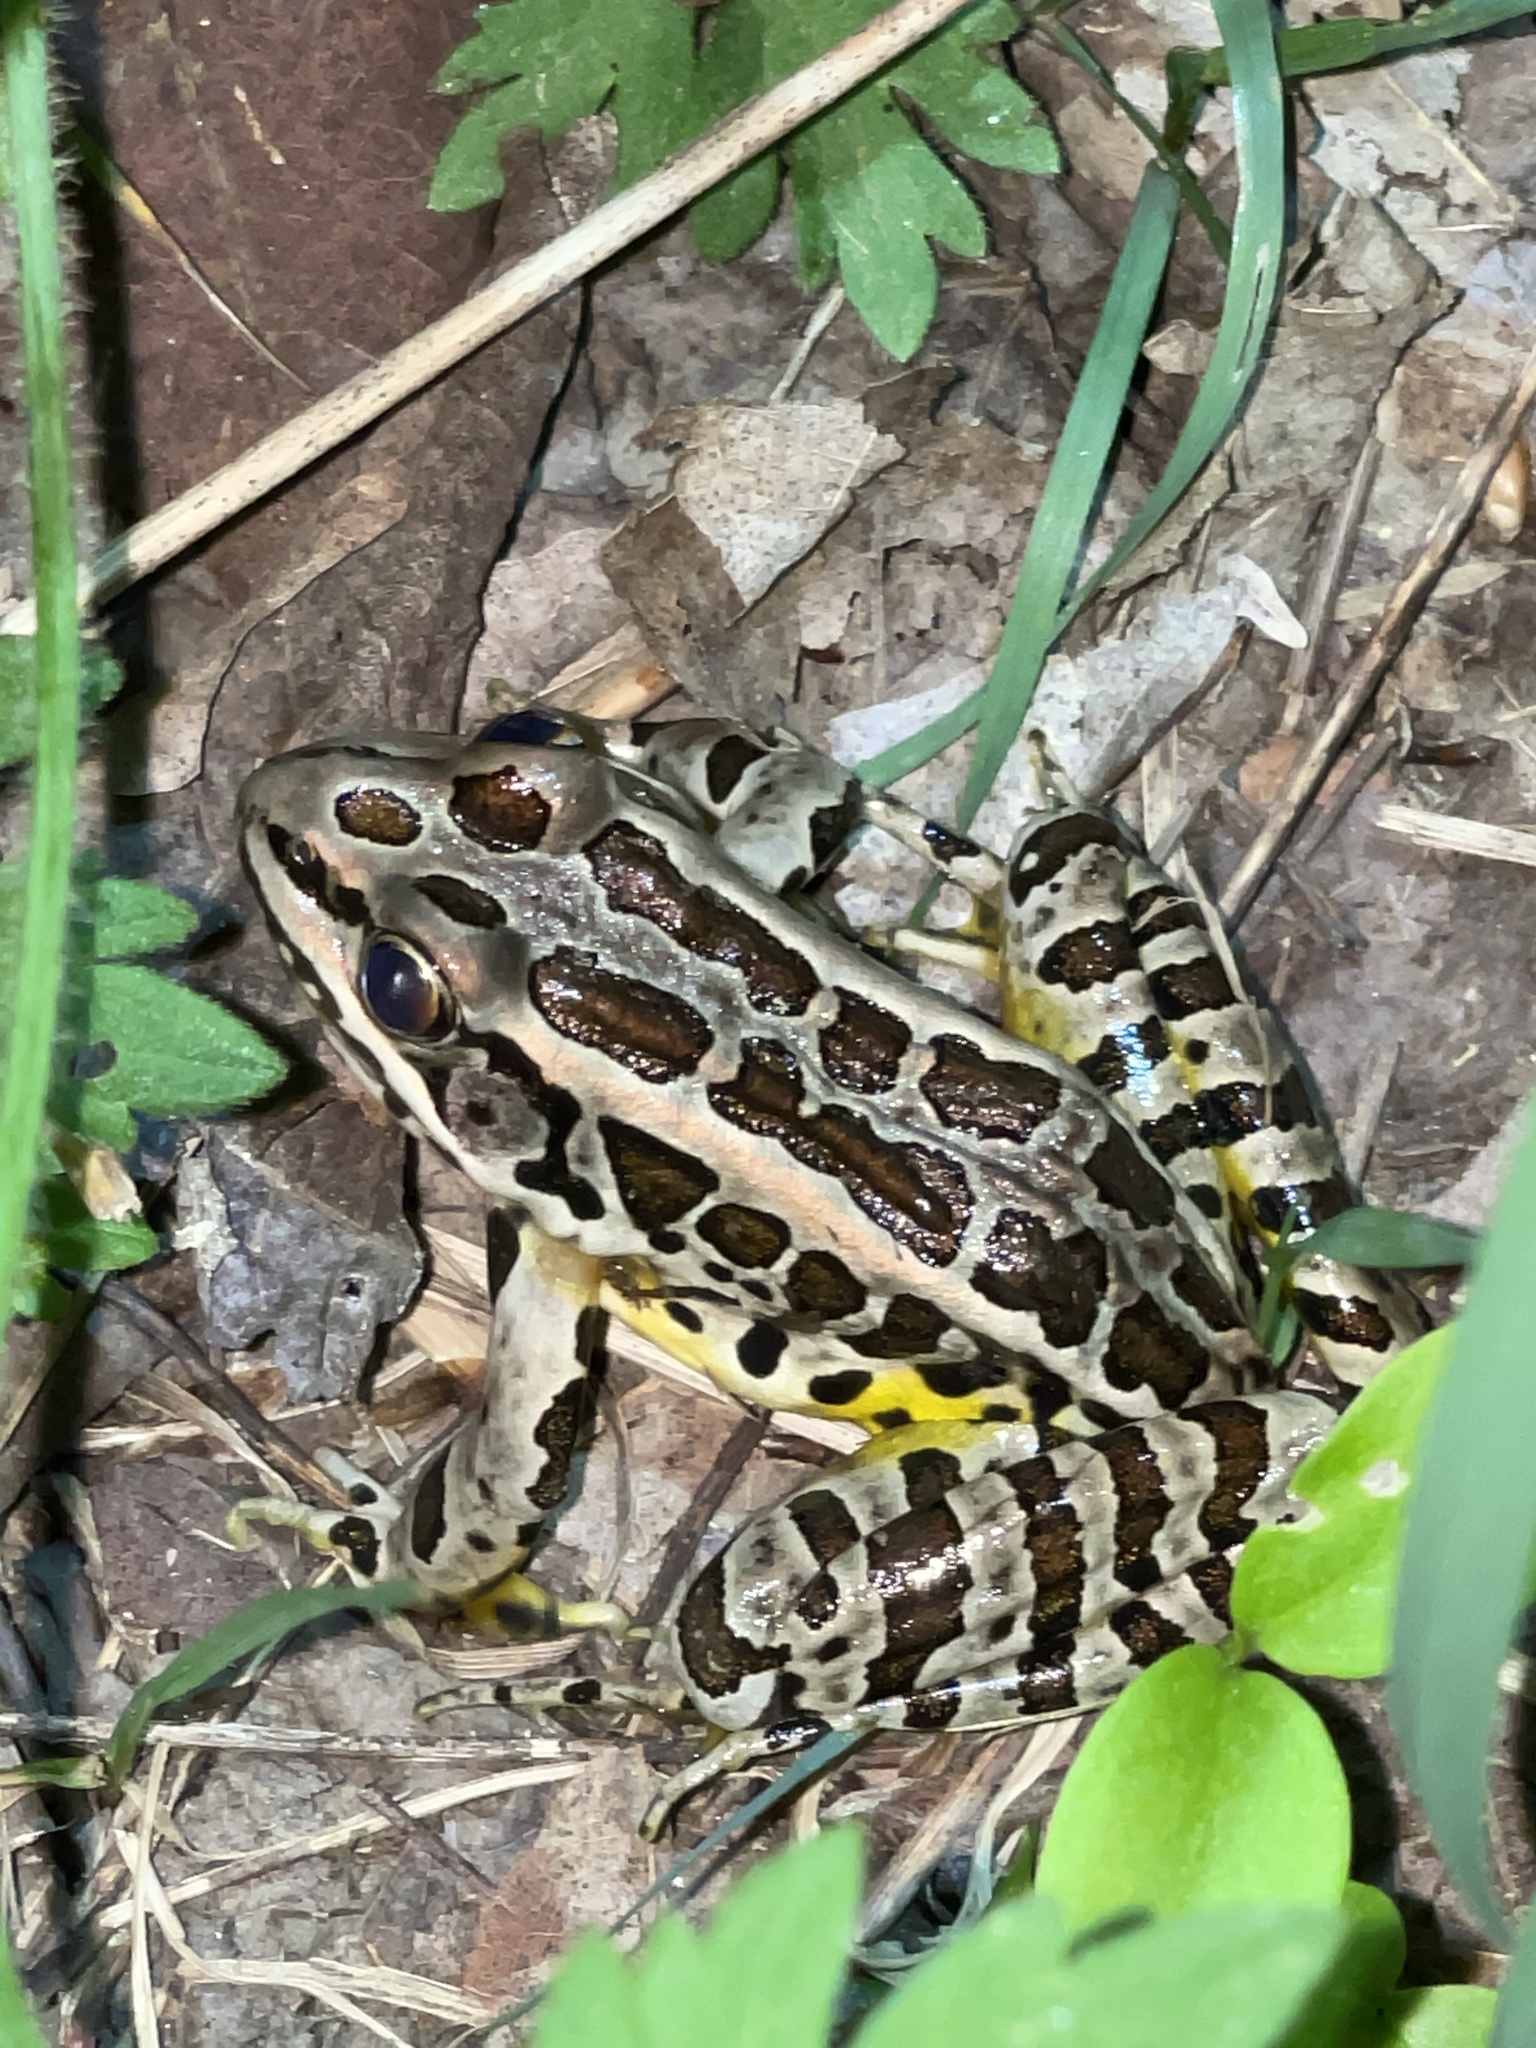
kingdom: Animalia
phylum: Chordata
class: Amphibia
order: Anura
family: Ranidae
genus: Lithobates
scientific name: Lithobates palustris
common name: Pickerel frog
